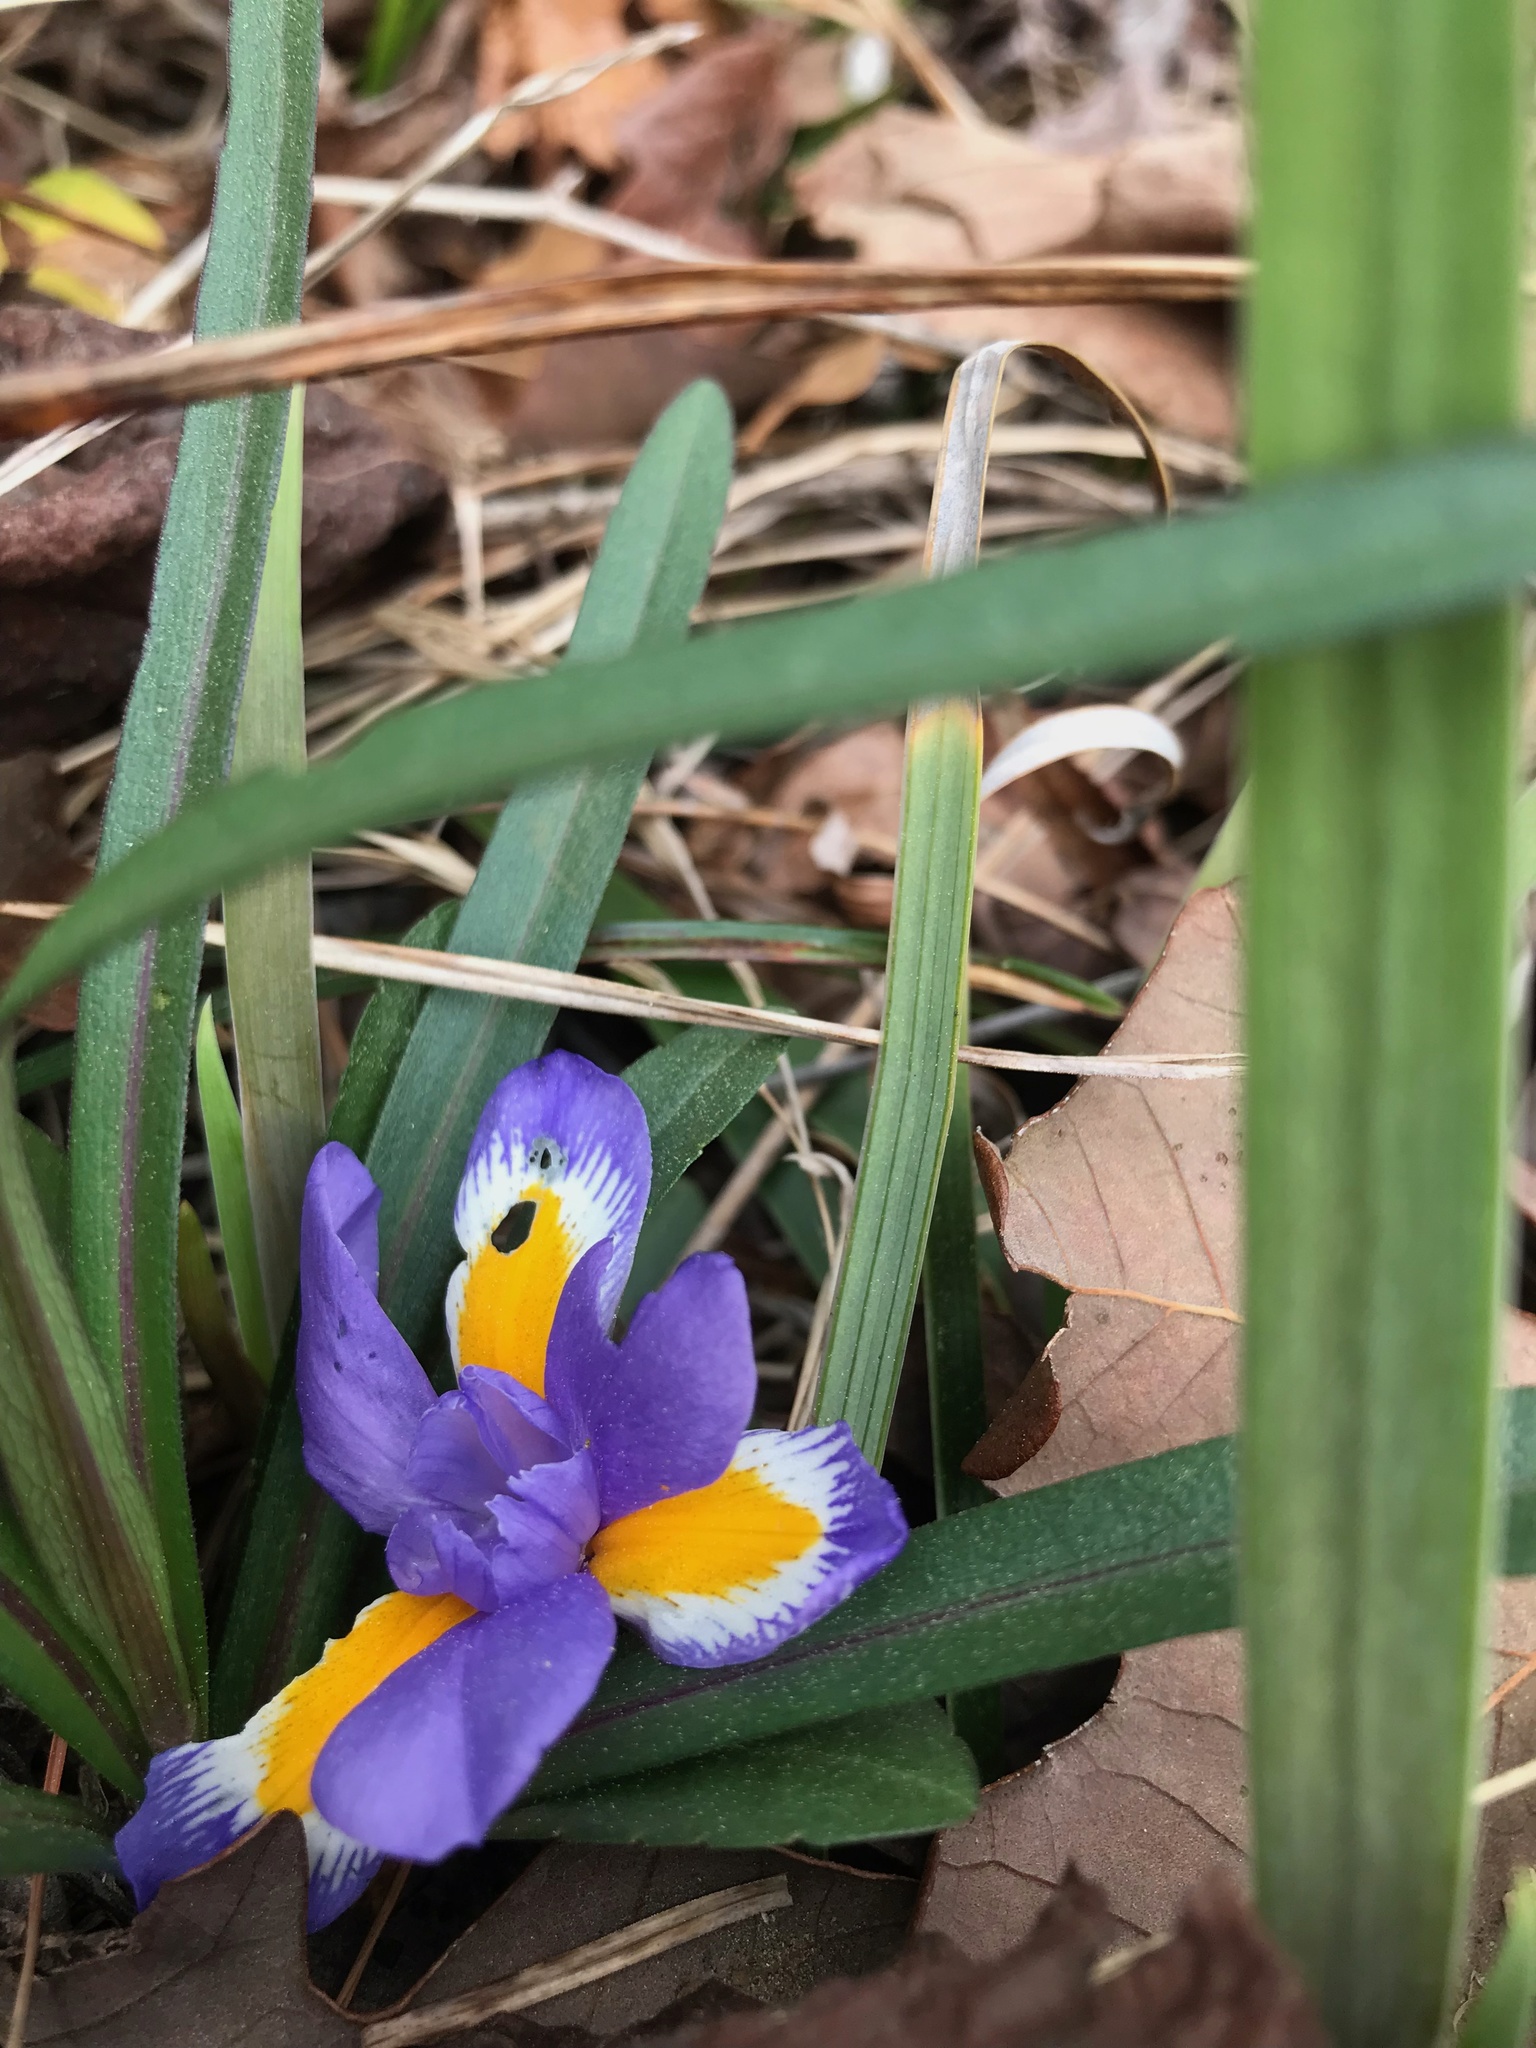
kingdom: Plantae
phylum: Tracheophyta
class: Liliopsida
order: Asparagales
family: Iridaceae
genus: Iris
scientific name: Iris verna
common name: Dwarf iris
